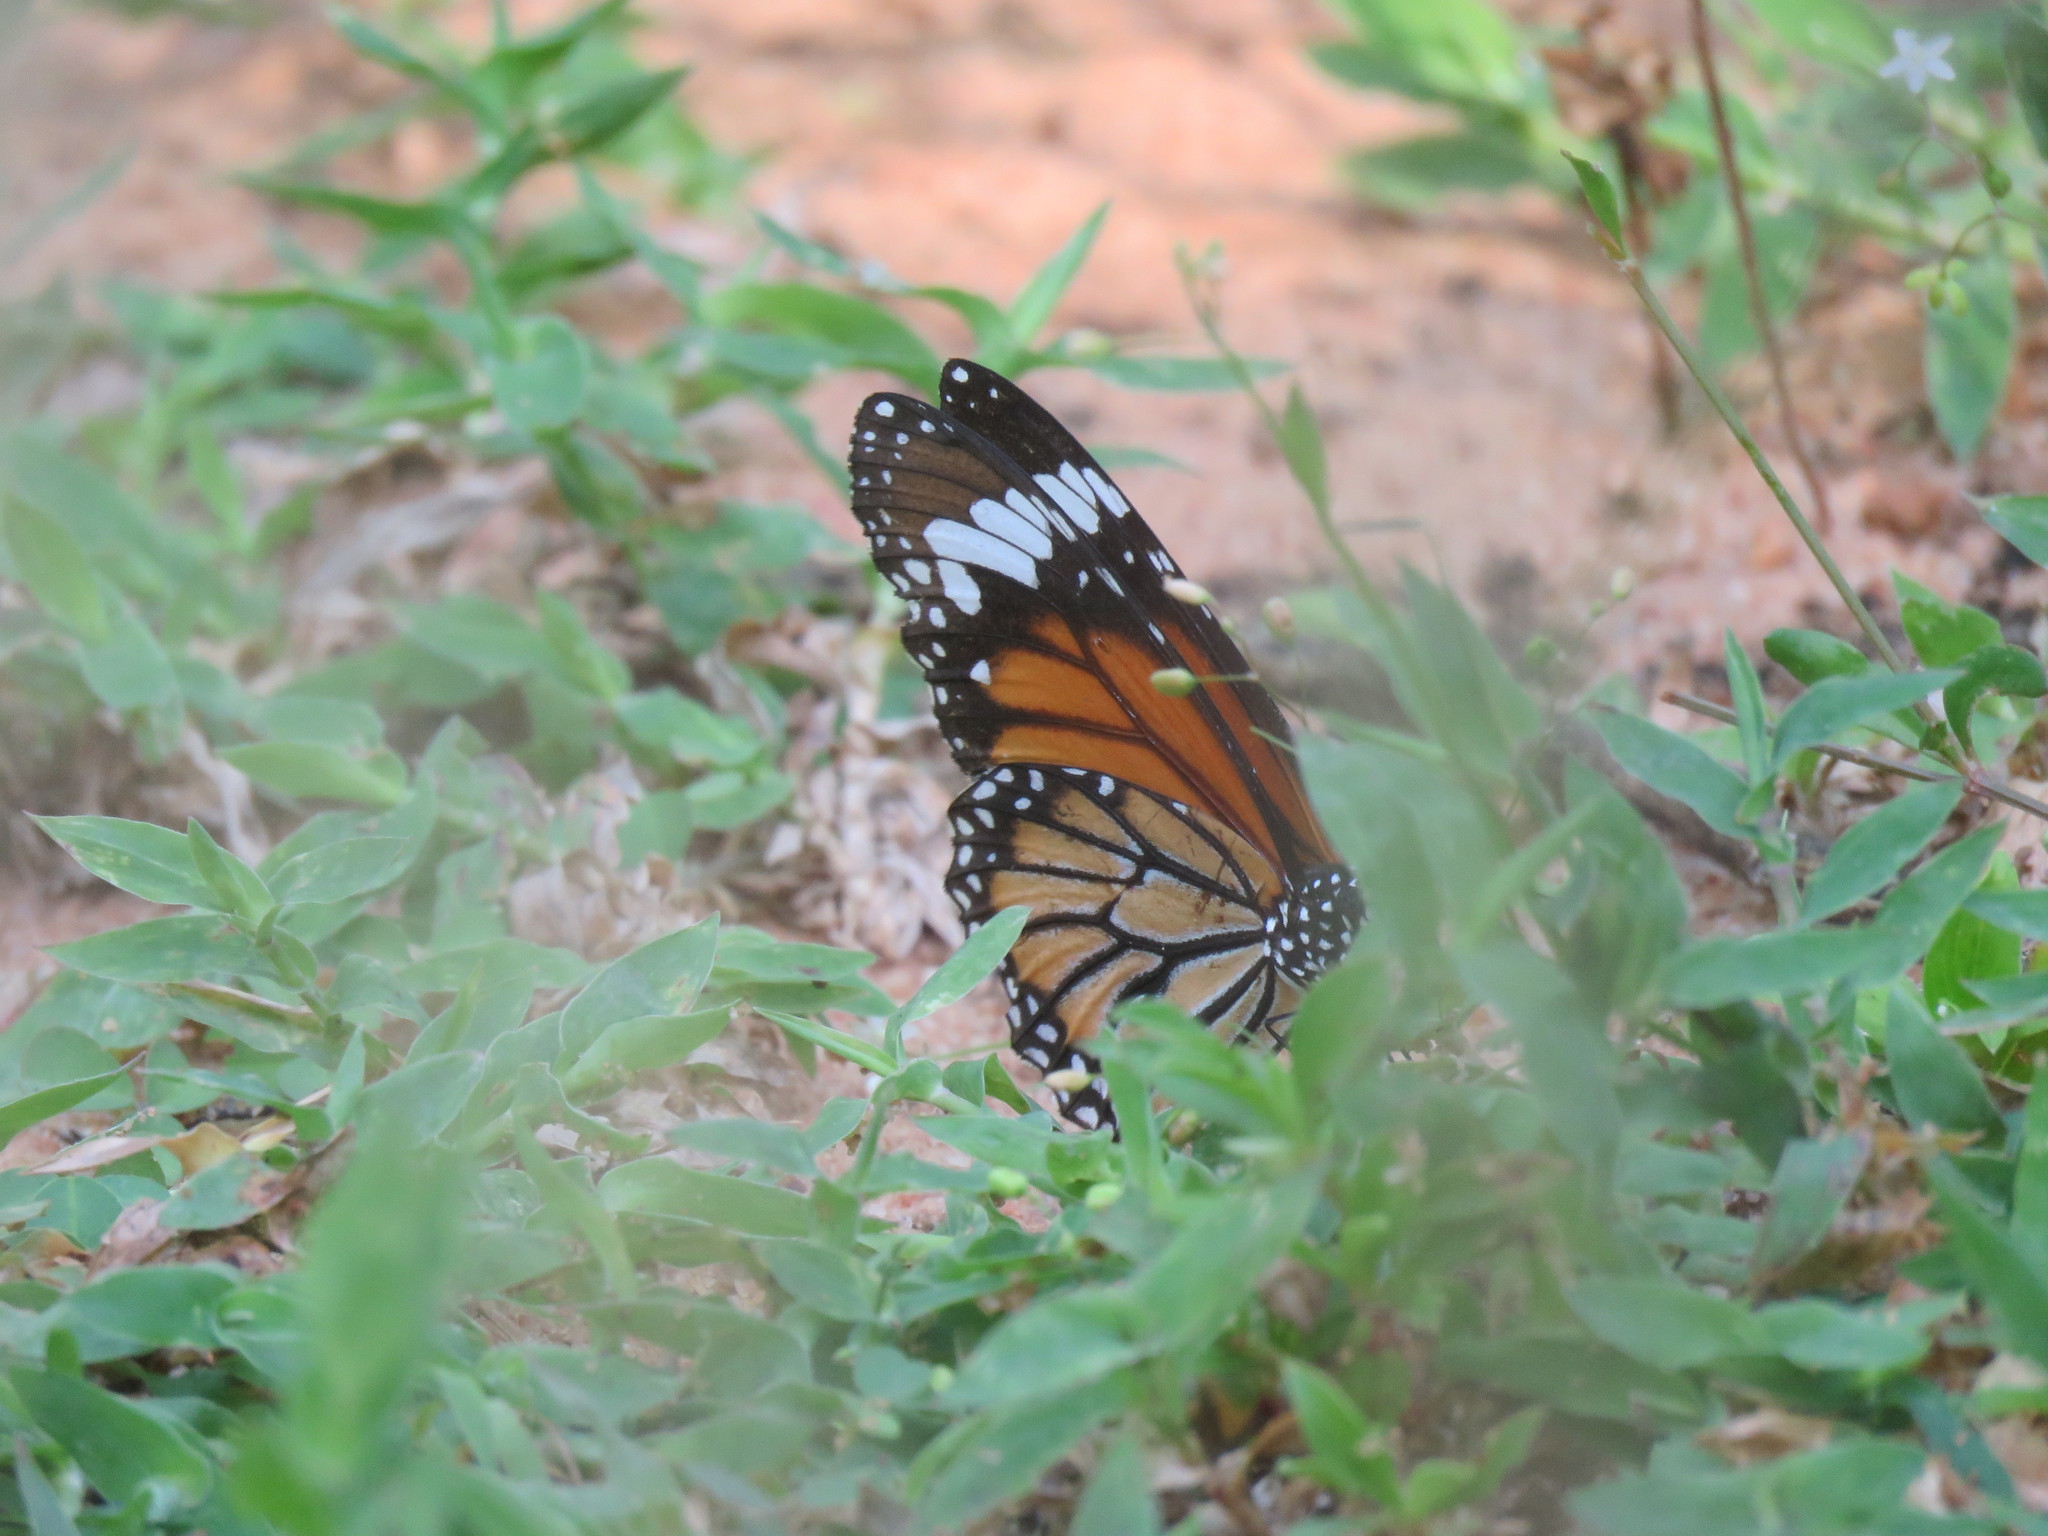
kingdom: Animalia
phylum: Arthropoda
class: Insecta
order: Lepidoptera
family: Nymphalidae
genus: Danaus
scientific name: Danaus genutia
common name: Common tiger butterfly
